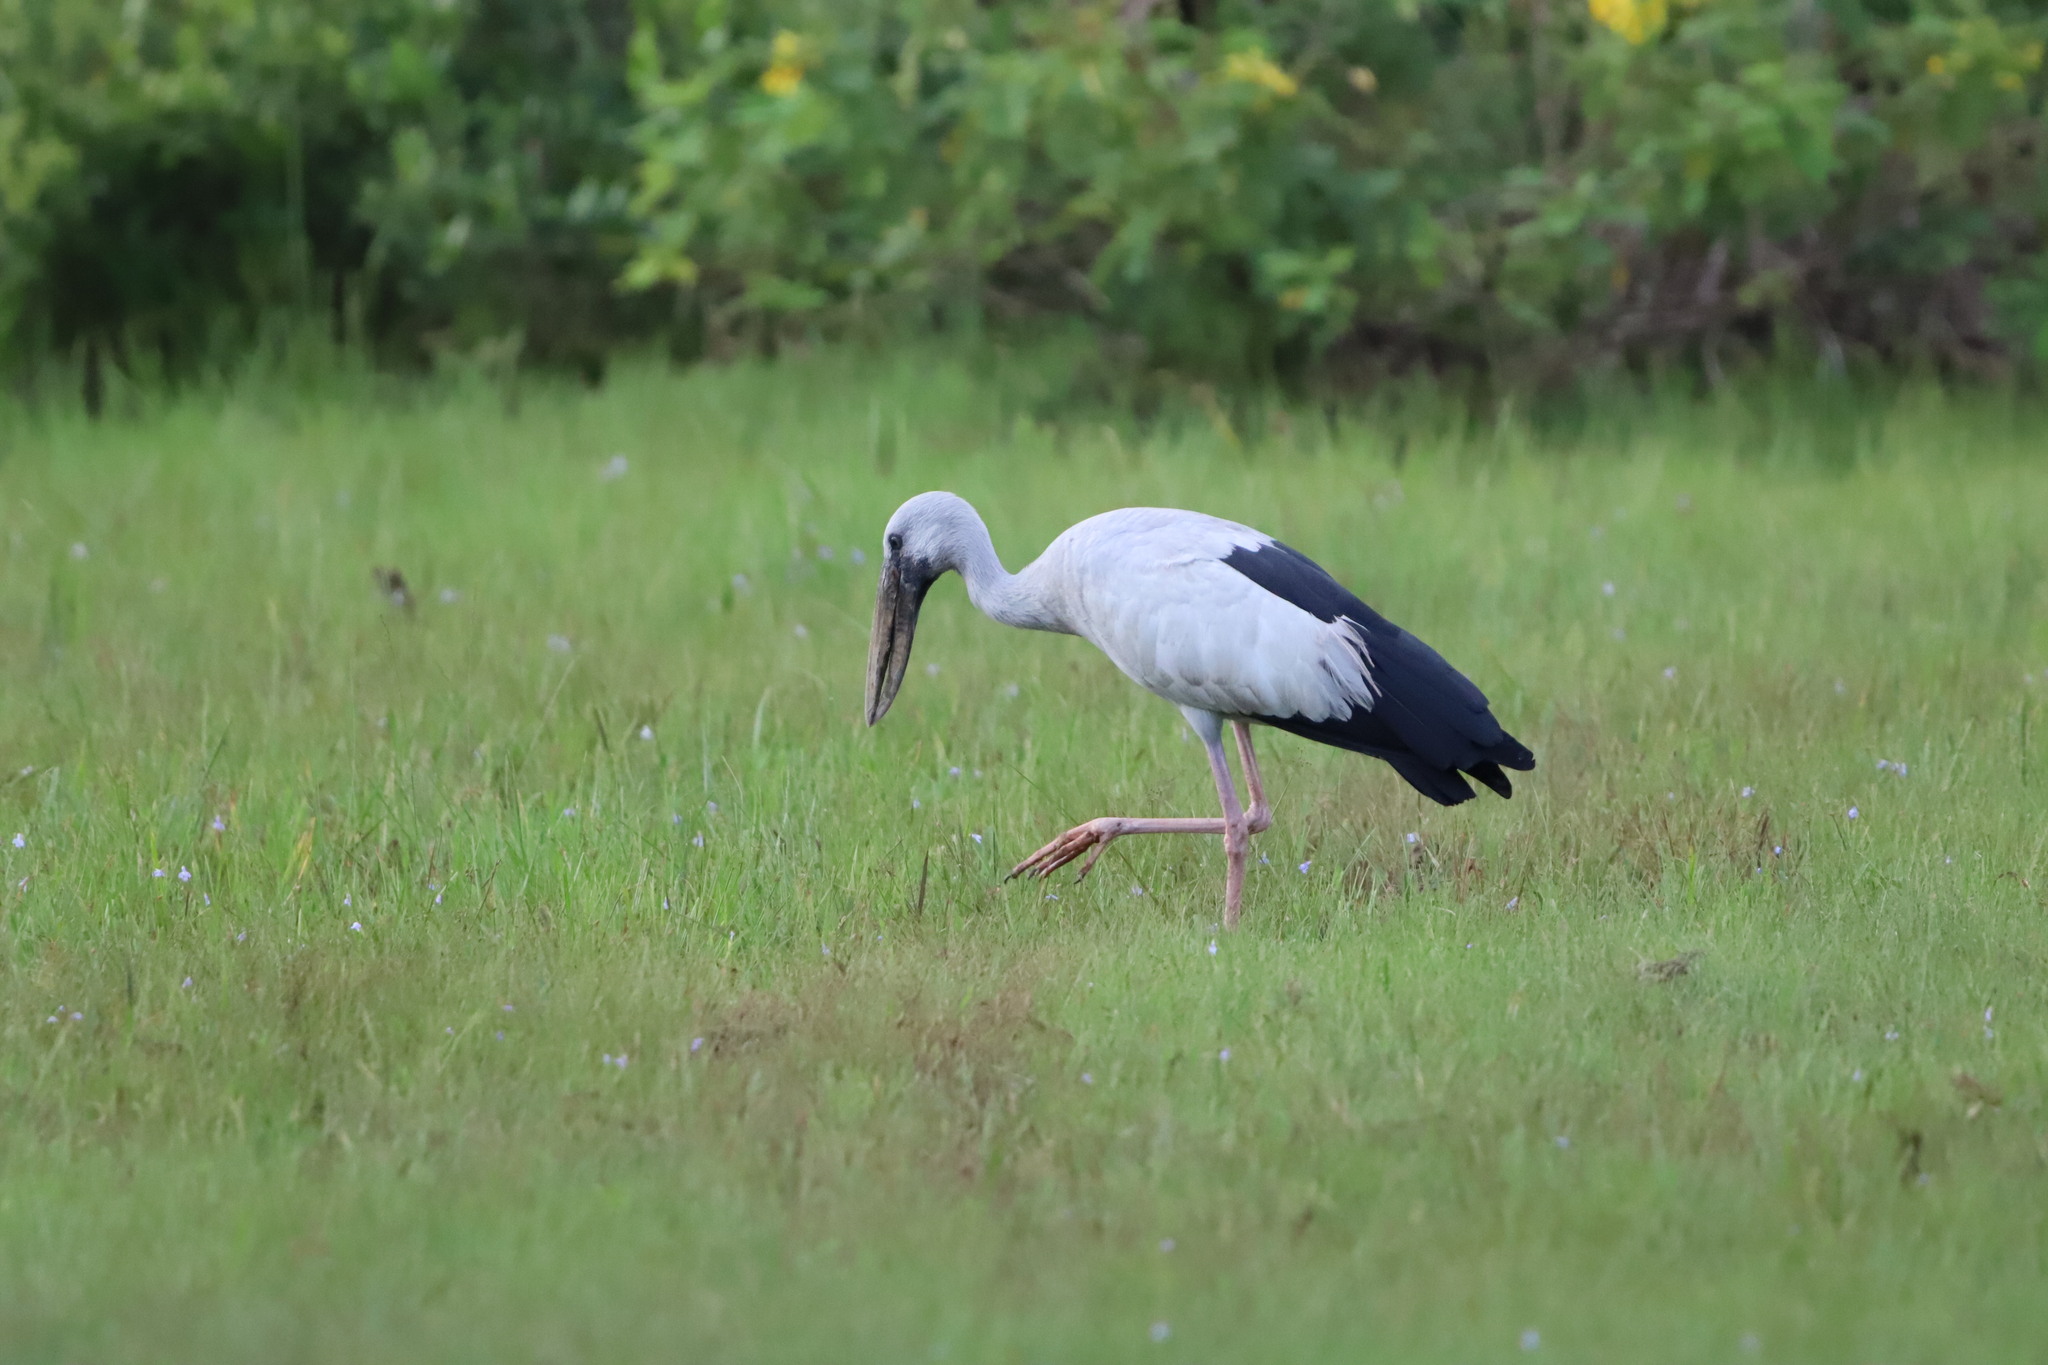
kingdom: Animalia
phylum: Chordata
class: Aves
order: Ciconiiformes
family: Ciconiidae
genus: Anastomus
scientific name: Anastomus oscitans
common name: Asian openbill
